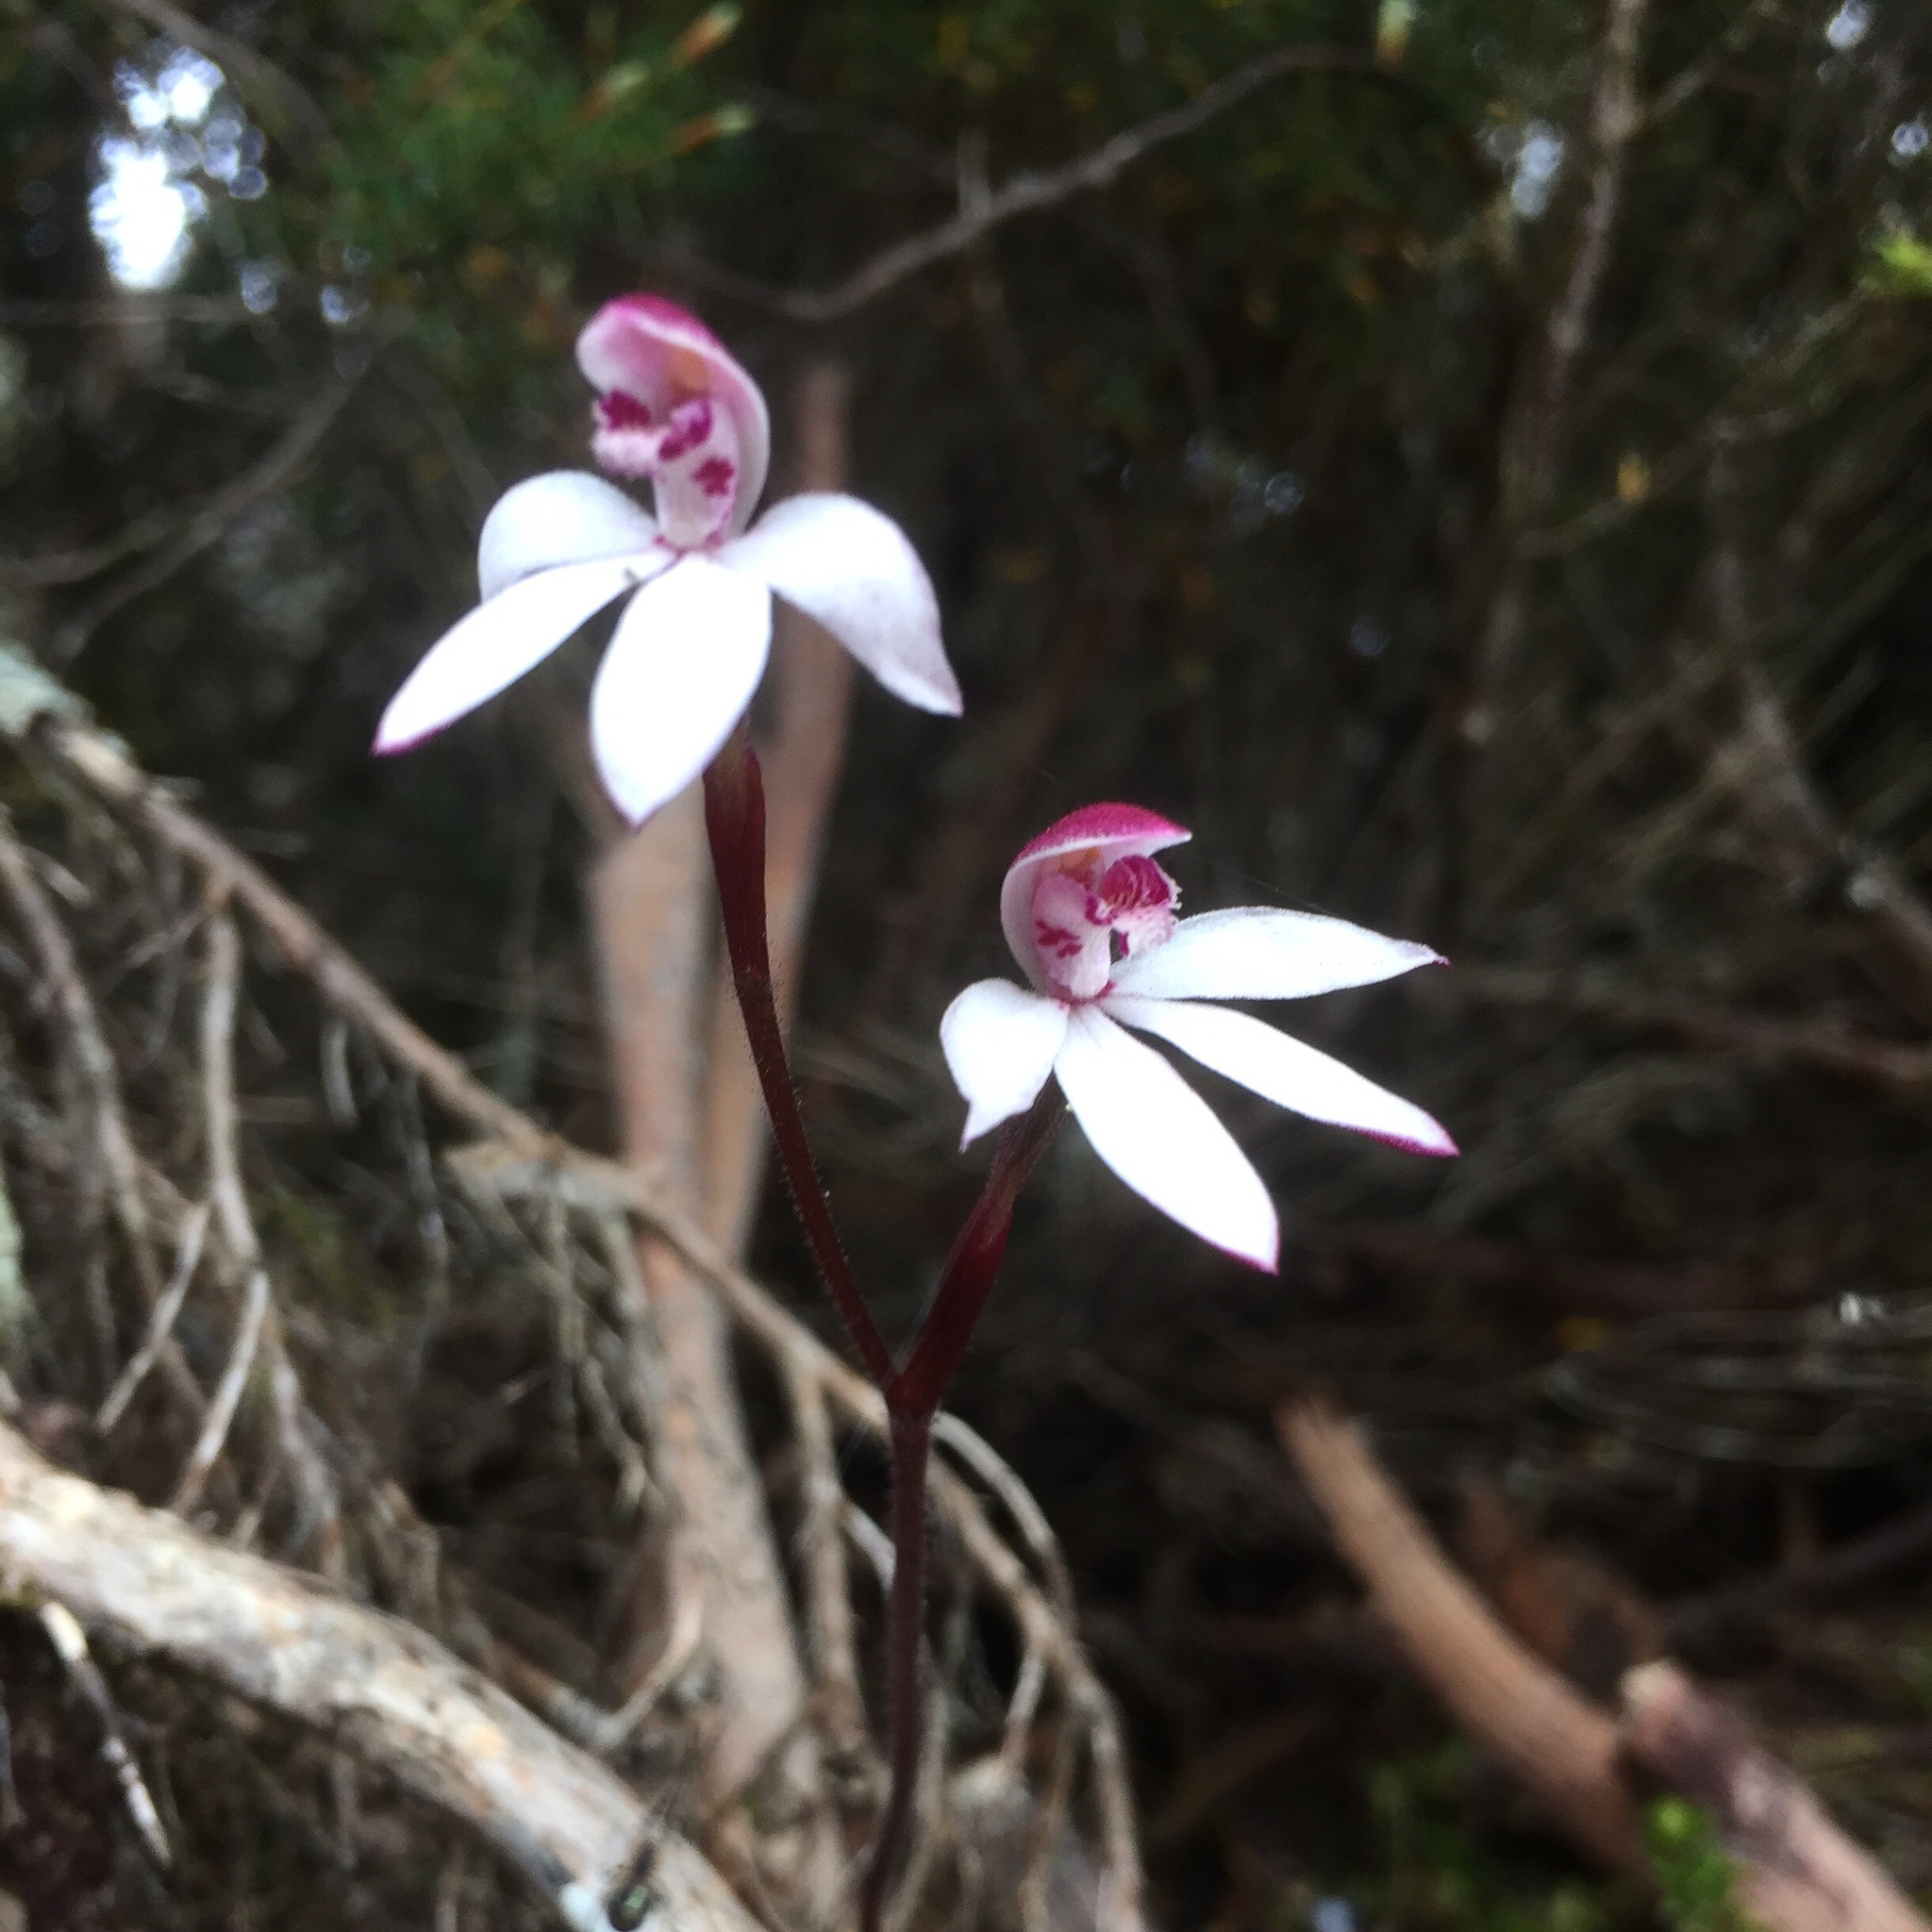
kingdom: Plantae
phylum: Tracheophyta
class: Liliopsida
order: Asparagales
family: Orchidaceae
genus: Caladenia
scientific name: Caladenia alpina
